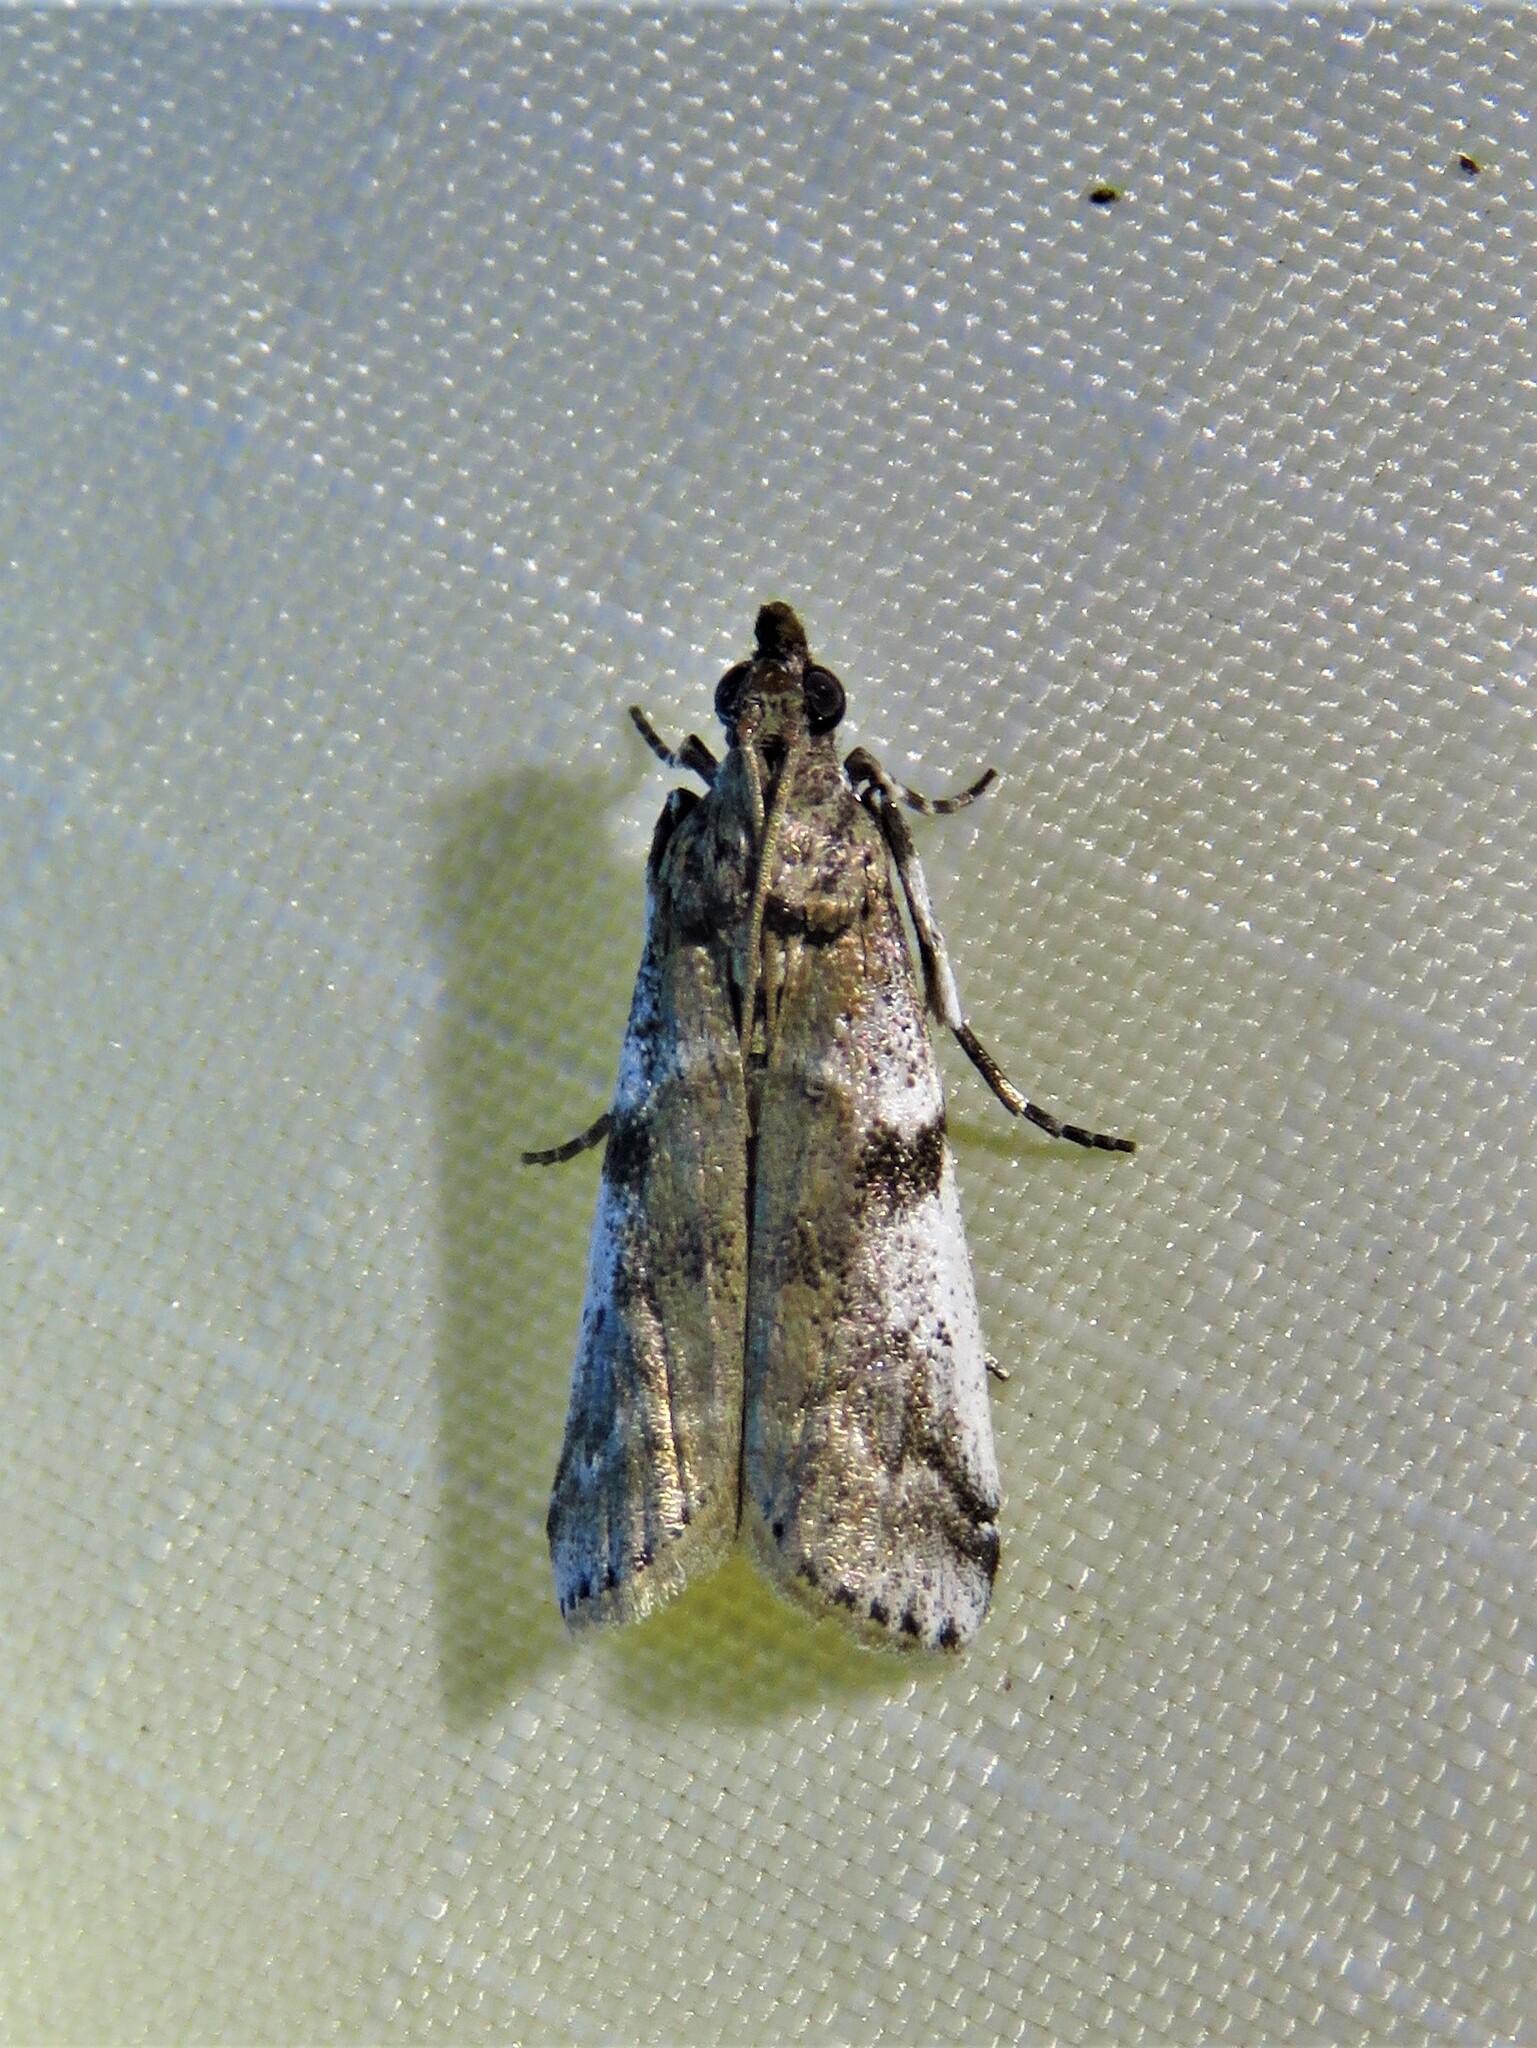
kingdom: Animalia
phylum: Arthropoda
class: Insecta
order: Lepidoptera
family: Pyralidae
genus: Laetilia
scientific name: Laetilia coccidivora
